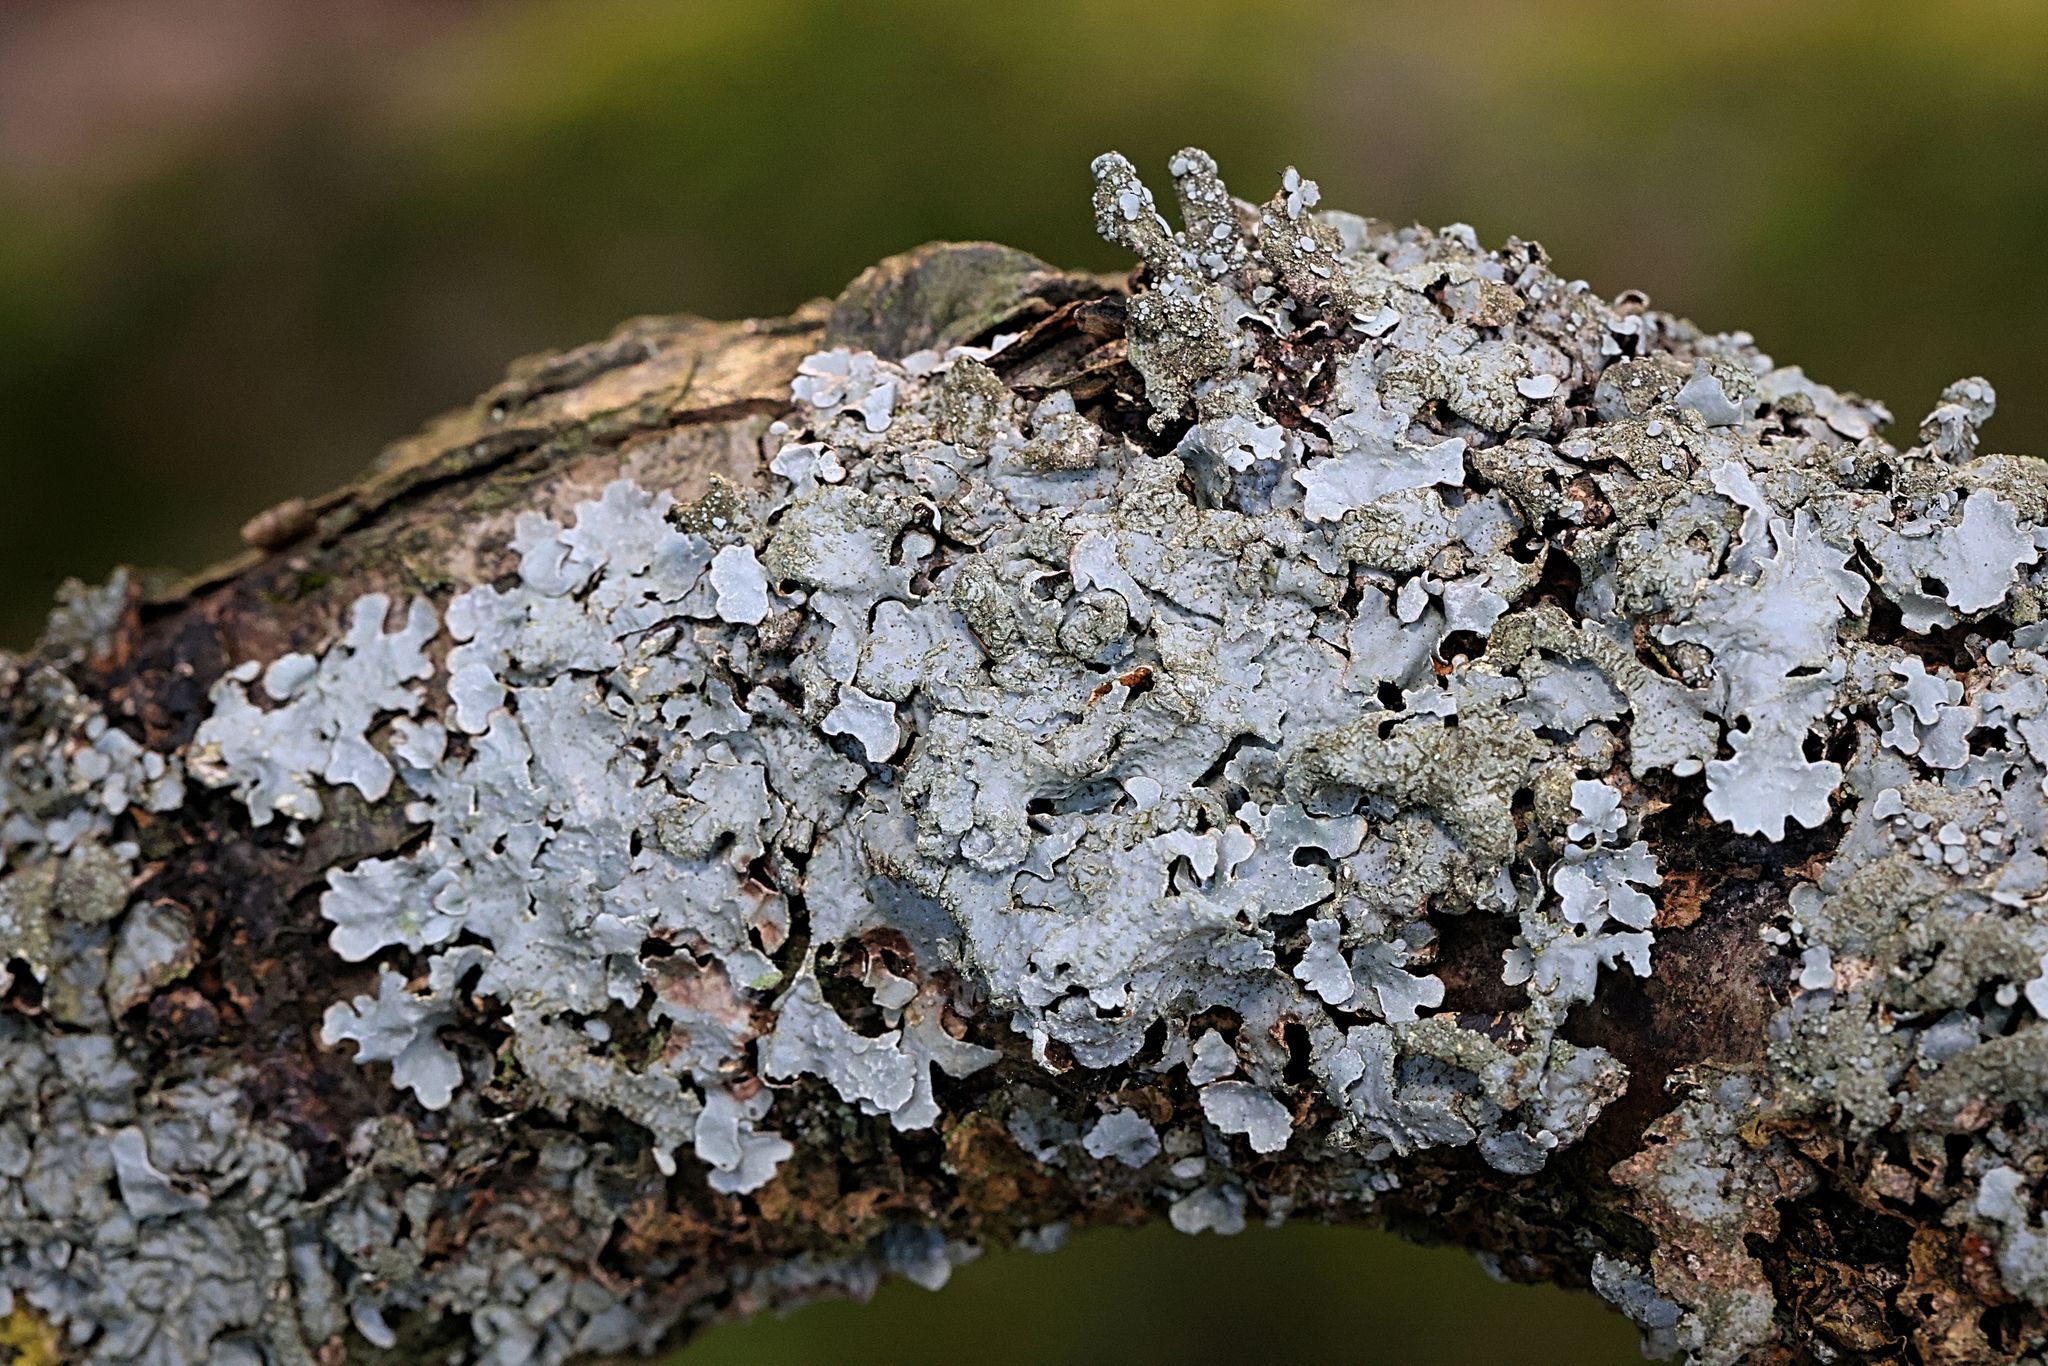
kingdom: Fungi
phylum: Ascomycota
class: Lecanoromycetes
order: Lecanorales
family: Parmeliaceae
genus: Parmelia
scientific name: Parmelia sulcata
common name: Netted shield lichen
